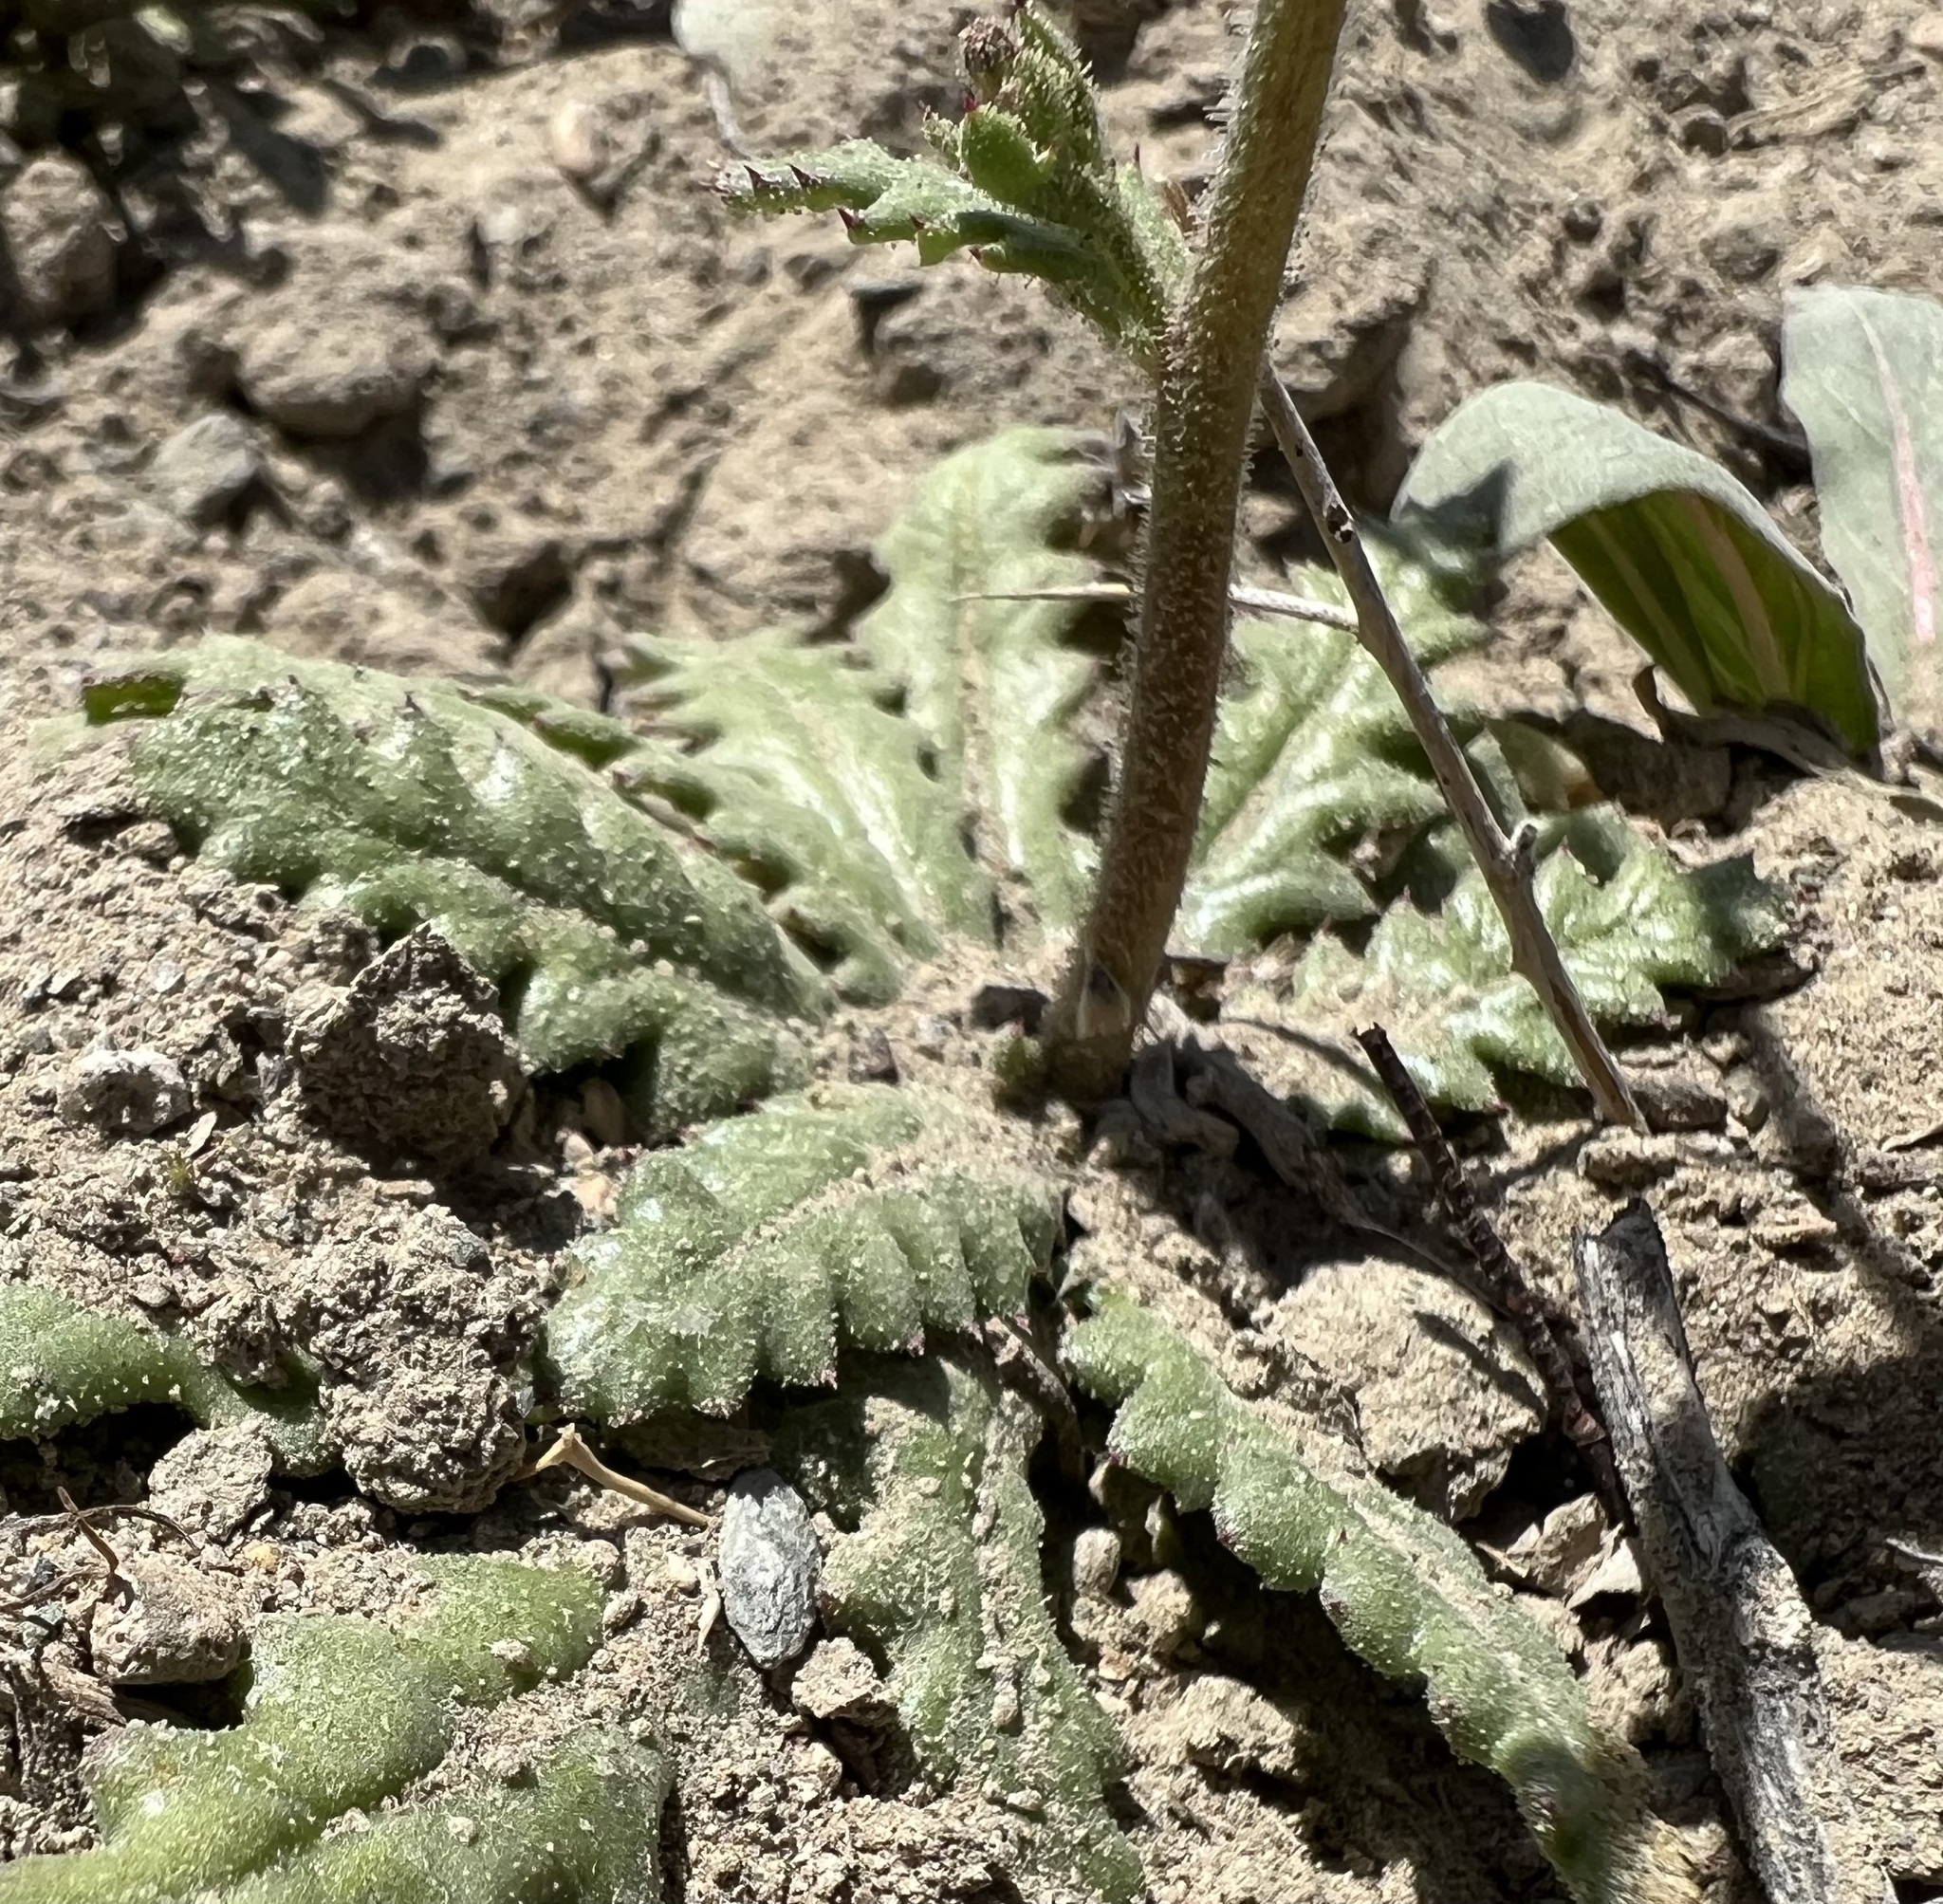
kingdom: Plantae
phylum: Tracheophyta
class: Magnoliopsida
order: Ericales
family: Polemoniaceae
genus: Aliciella
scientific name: Aliciella leptomeria
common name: Sand gilia
